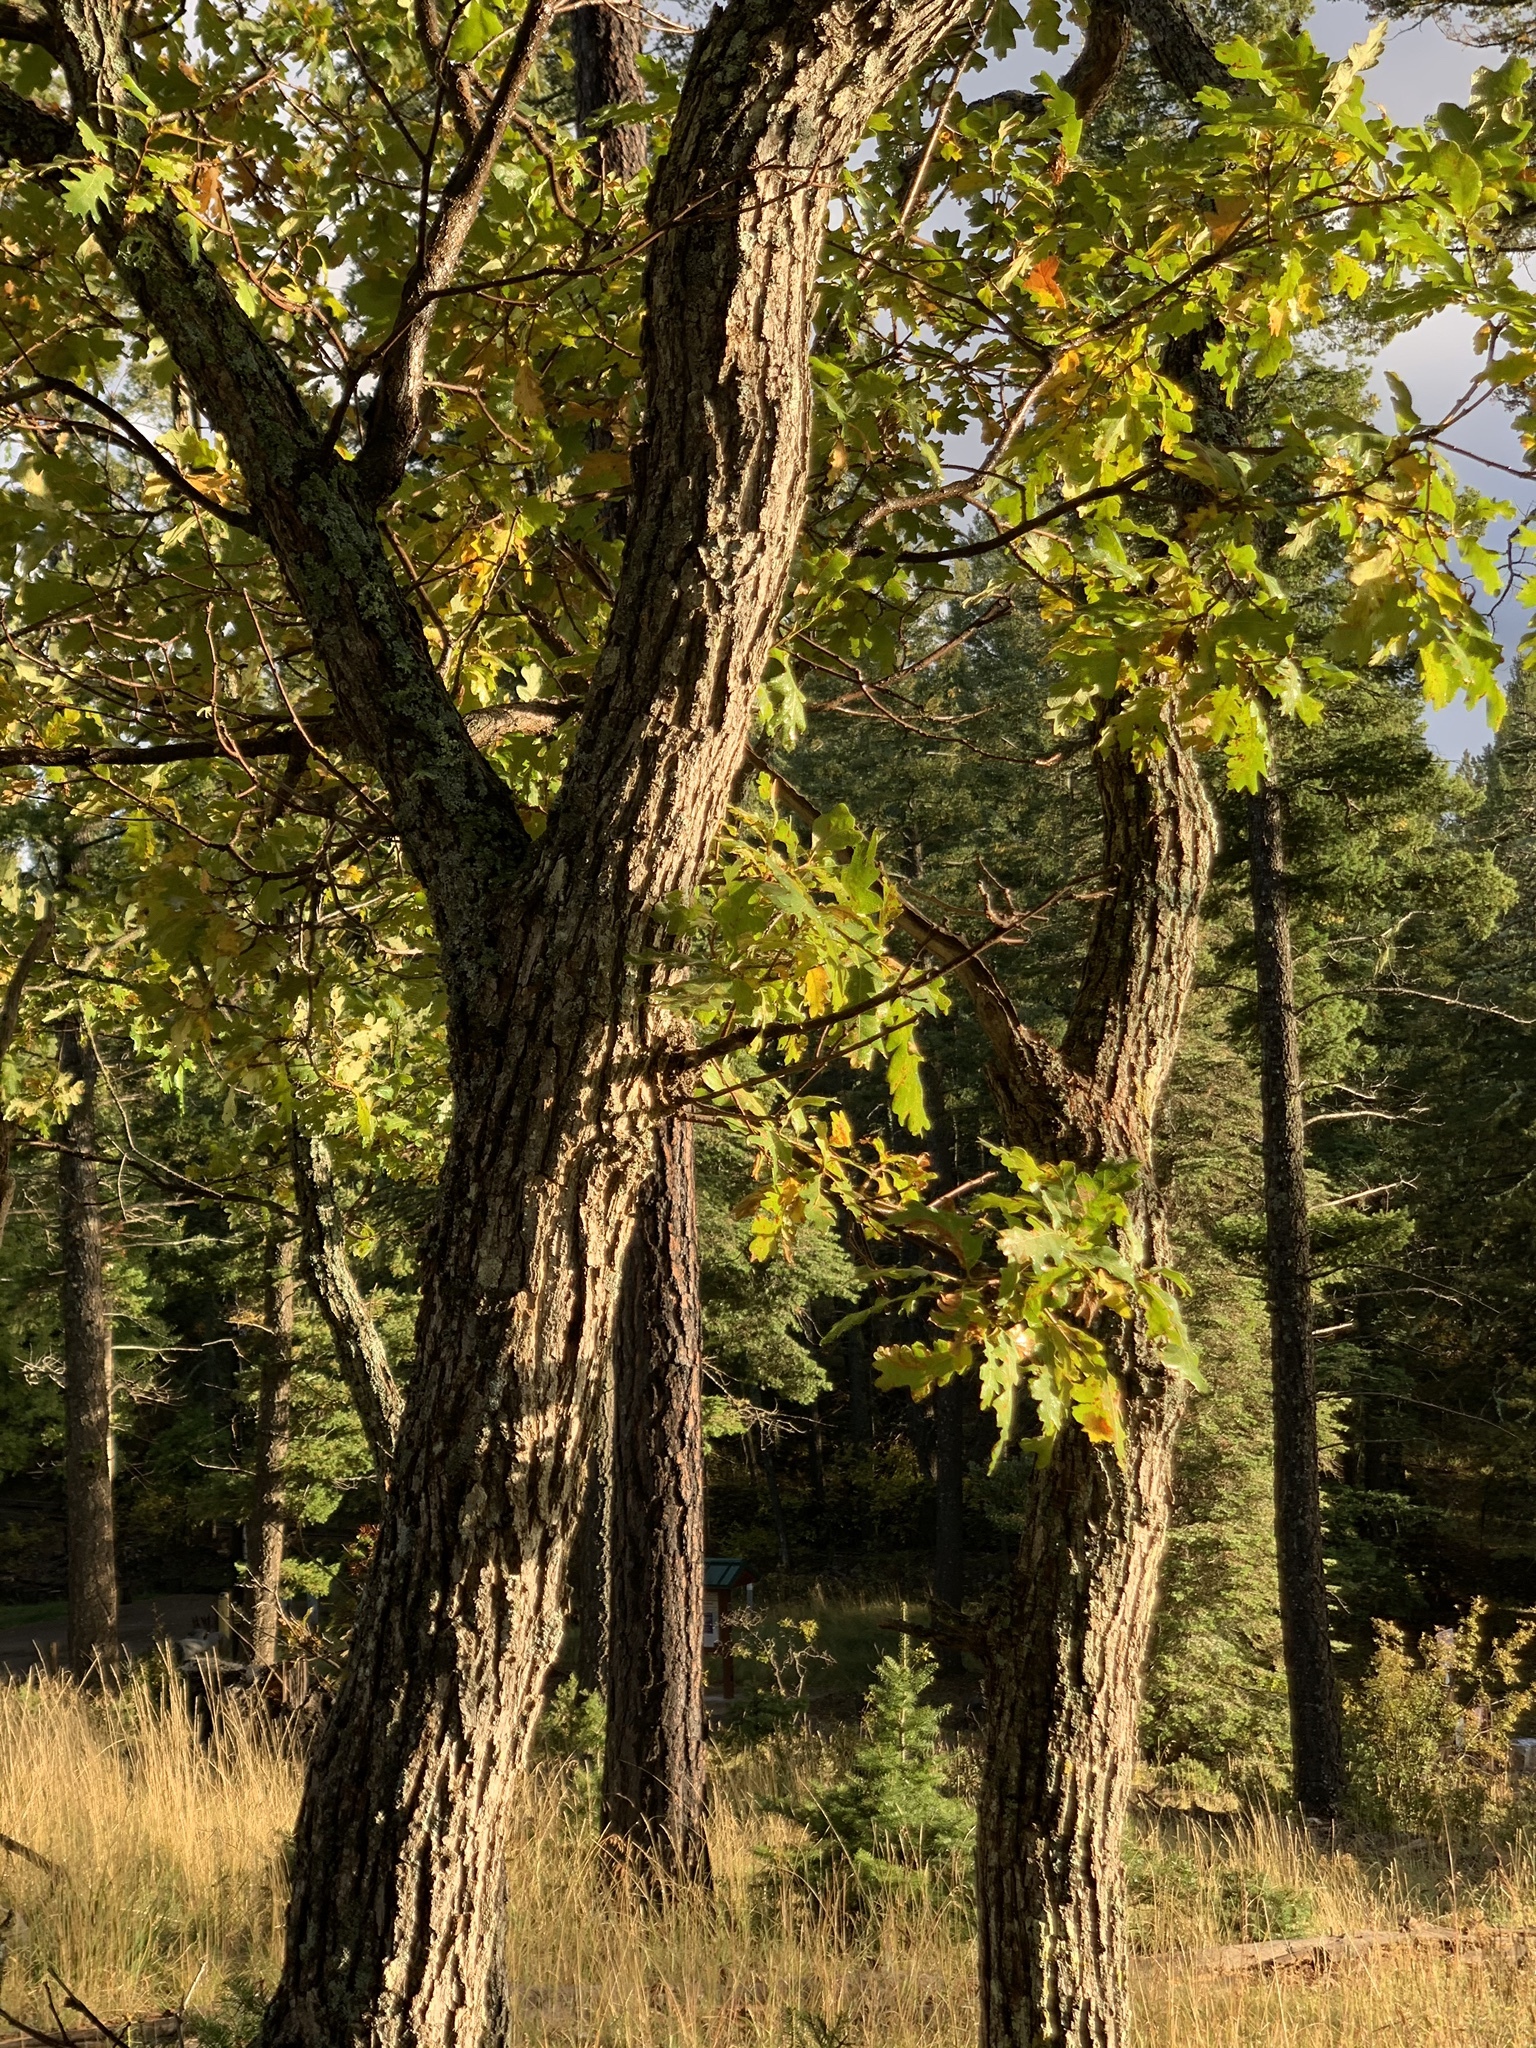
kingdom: Plantae
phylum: Tracheophyta
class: Magnoliopsida
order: Fagales
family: Fagaceae
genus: Quercus
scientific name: Quercus gambelii
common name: Gambel oak
